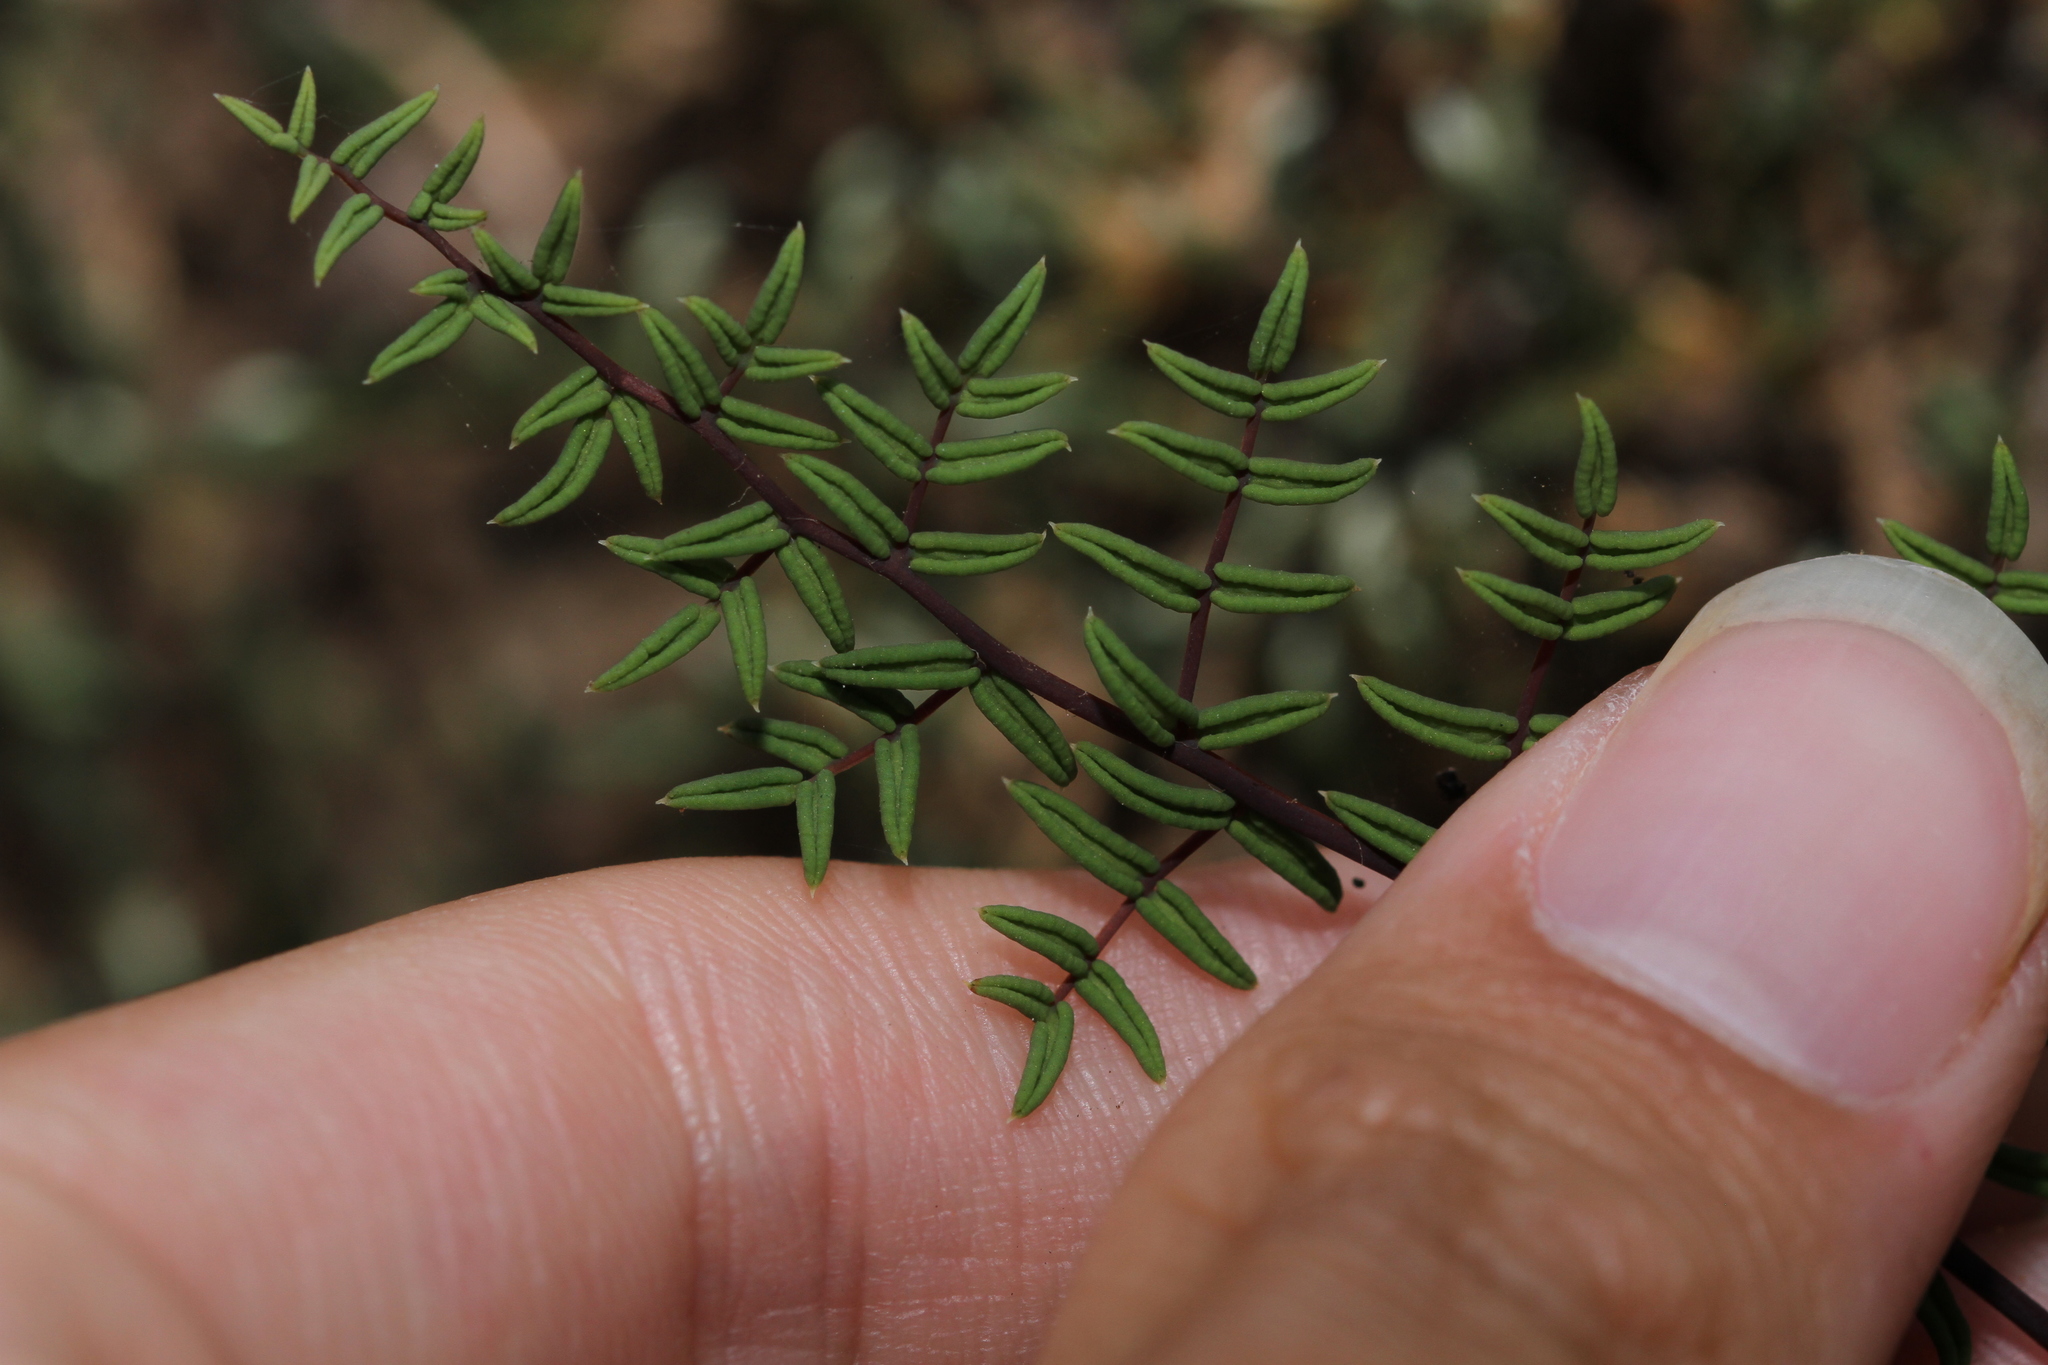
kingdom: Plantae
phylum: Tracheophyta
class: Polypodiopsida
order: Polypodiales
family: Pteridaceae
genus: Pellaea
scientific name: Pellaea mucronata
